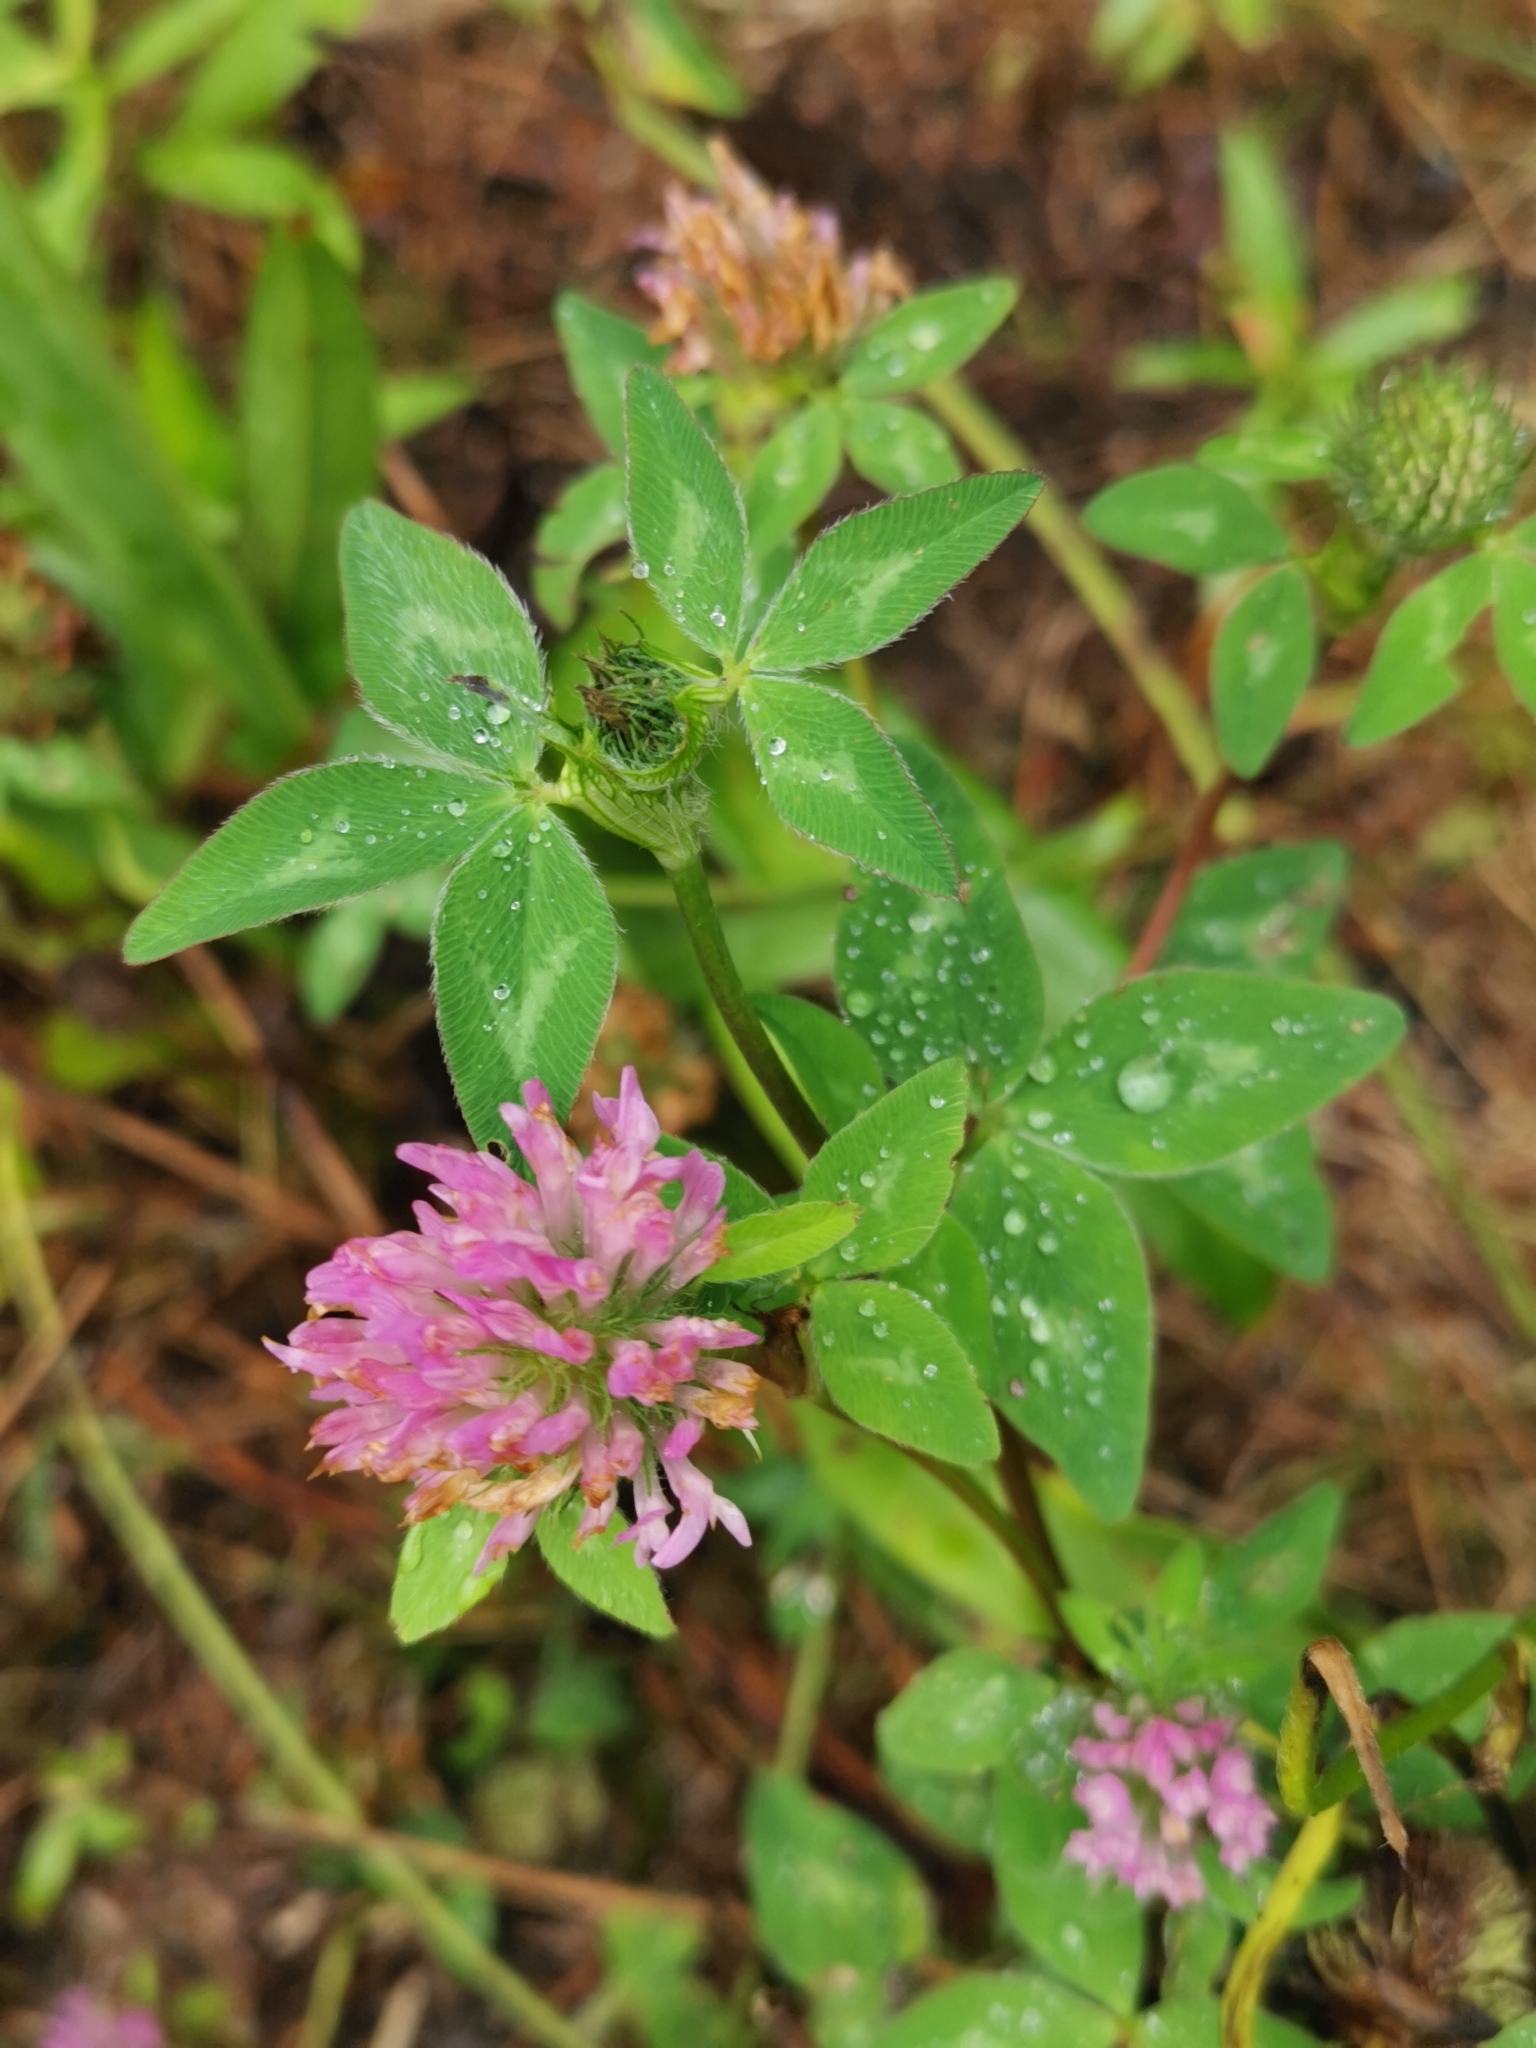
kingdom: Plantae
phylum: Tracheophyta
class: Magnoliopsida
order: Fabales
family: Fabaceae
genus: Trifolium
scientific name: Trifolium pratense
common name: Red clover
